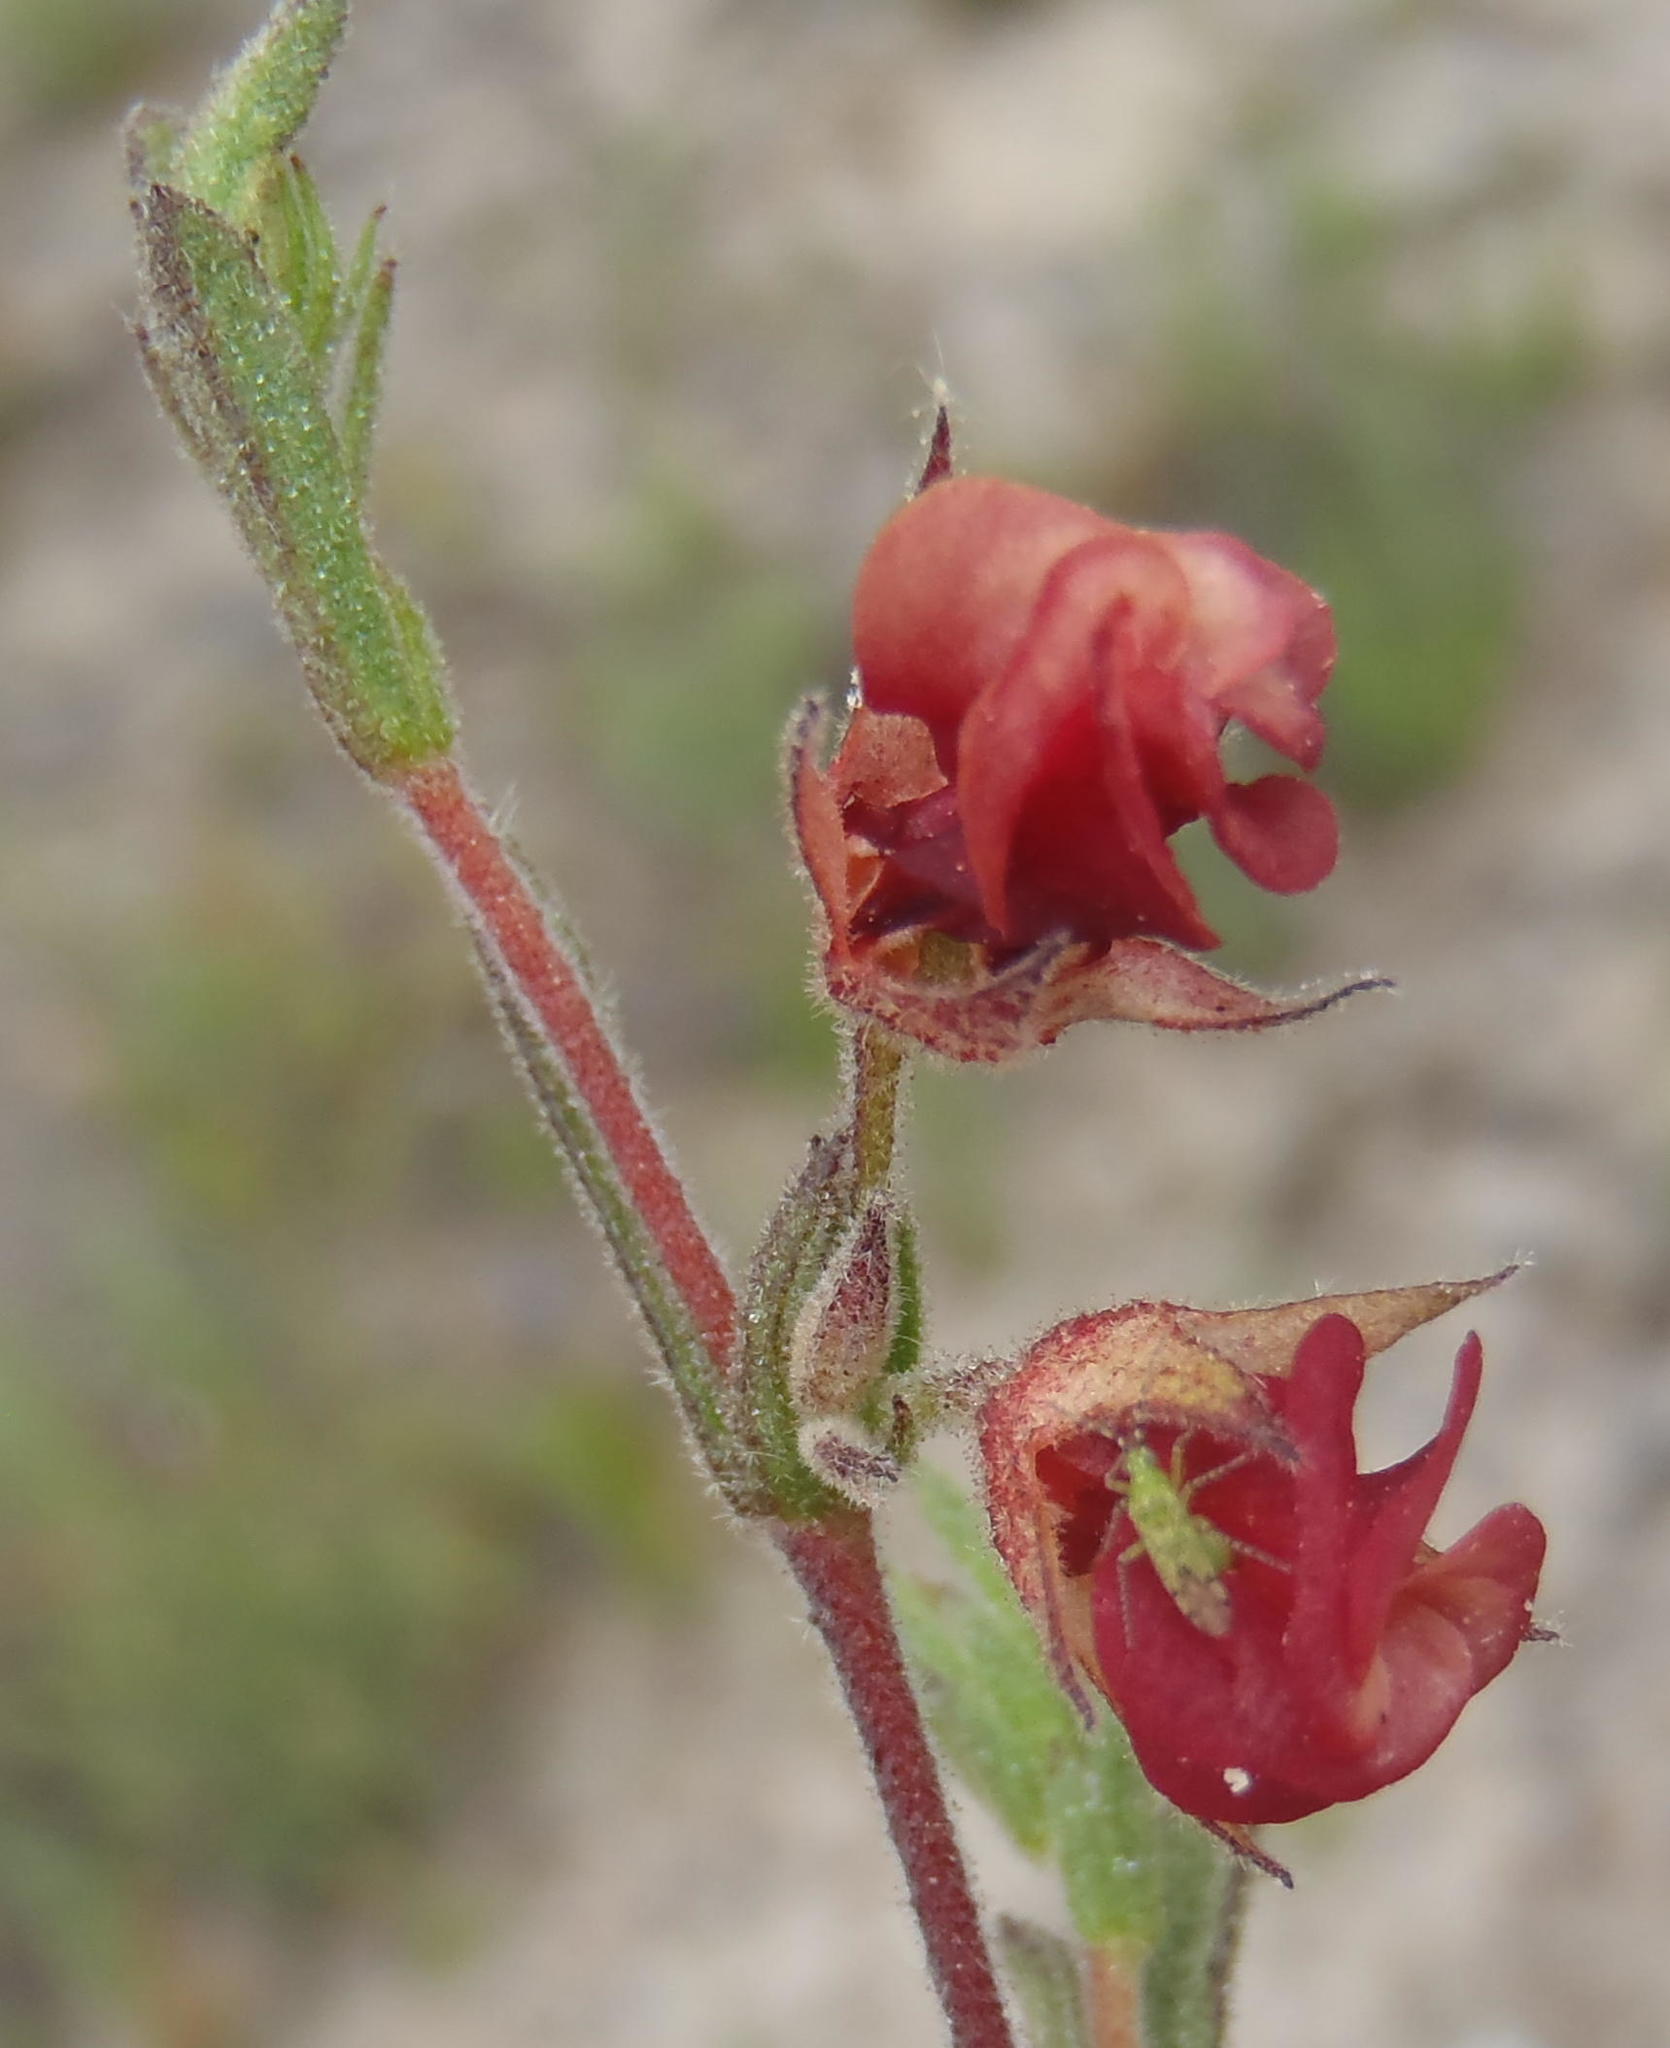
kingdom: Plantae
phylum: Tracheophyta
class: Magnoliopsida
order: Malvales
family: Malvaceae
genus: Hermannia
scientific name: Hermannia flammula
